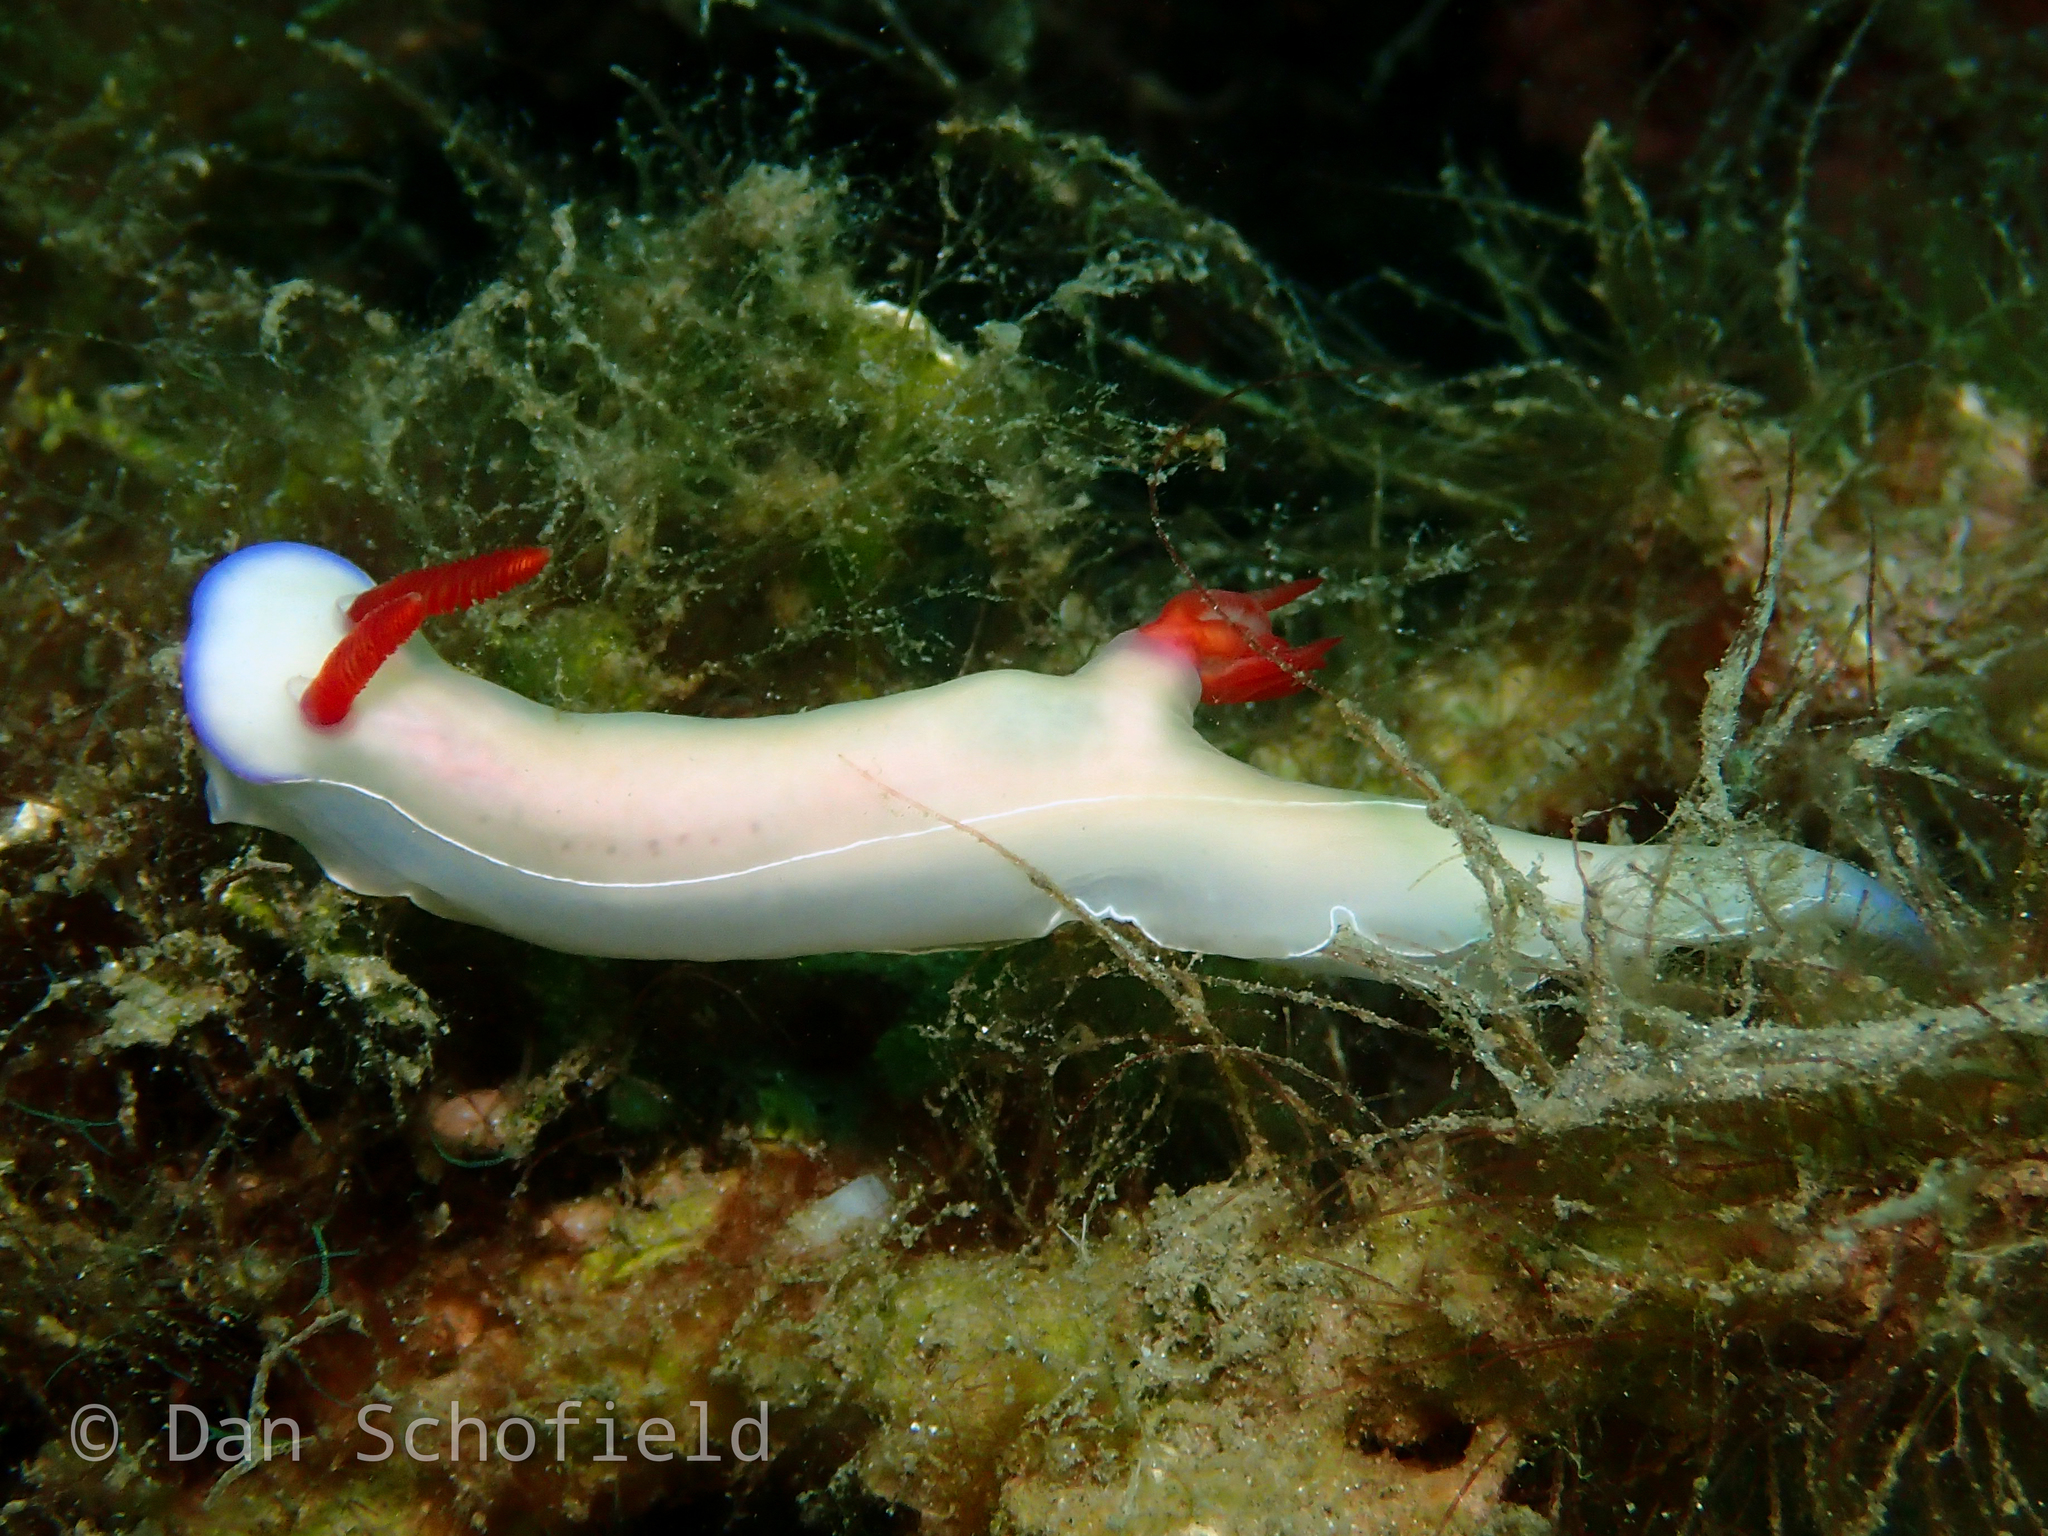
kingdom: Animalia
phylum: Mollusca
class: Gastropoda
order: Nudibranchia
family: Chromodorididae
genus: Hypselodoris
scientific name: Hypselodoris bullockii
